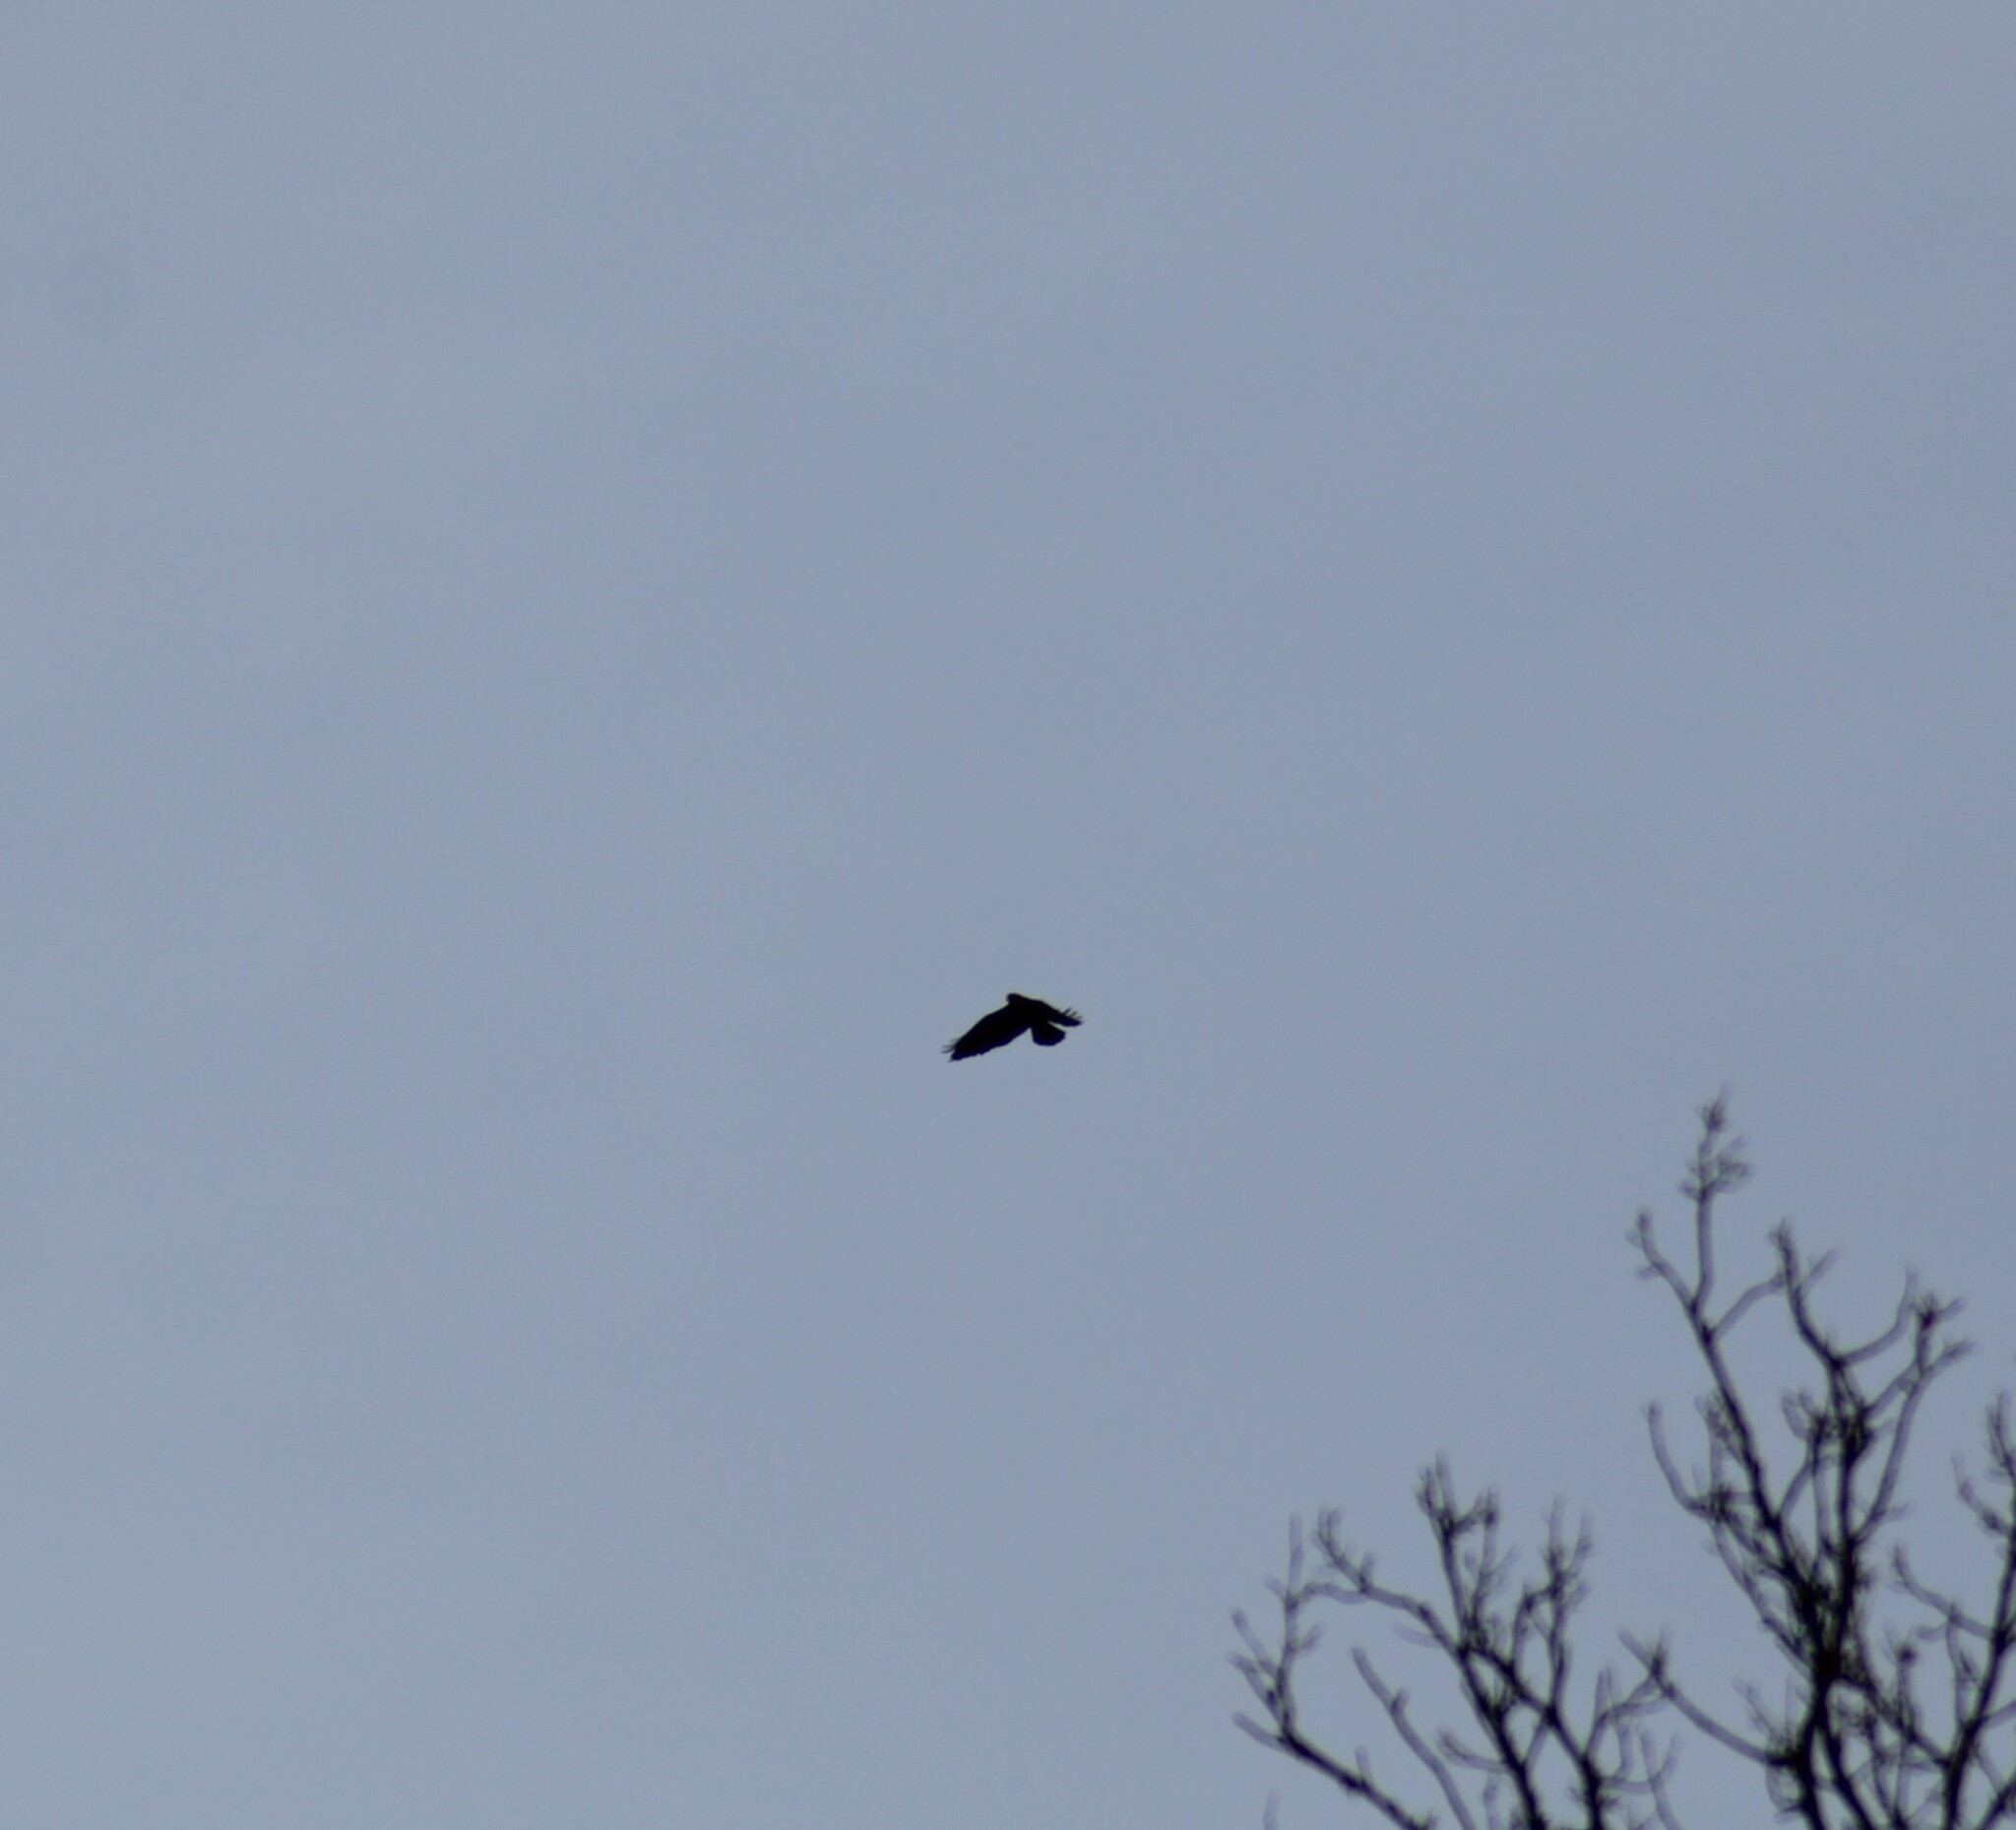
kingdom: Animalia
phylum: Chordata
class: Aves
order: Accipitriformes
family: Accipitridae
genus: Buteo
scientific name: Buteo buteo
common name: Common buzzard
